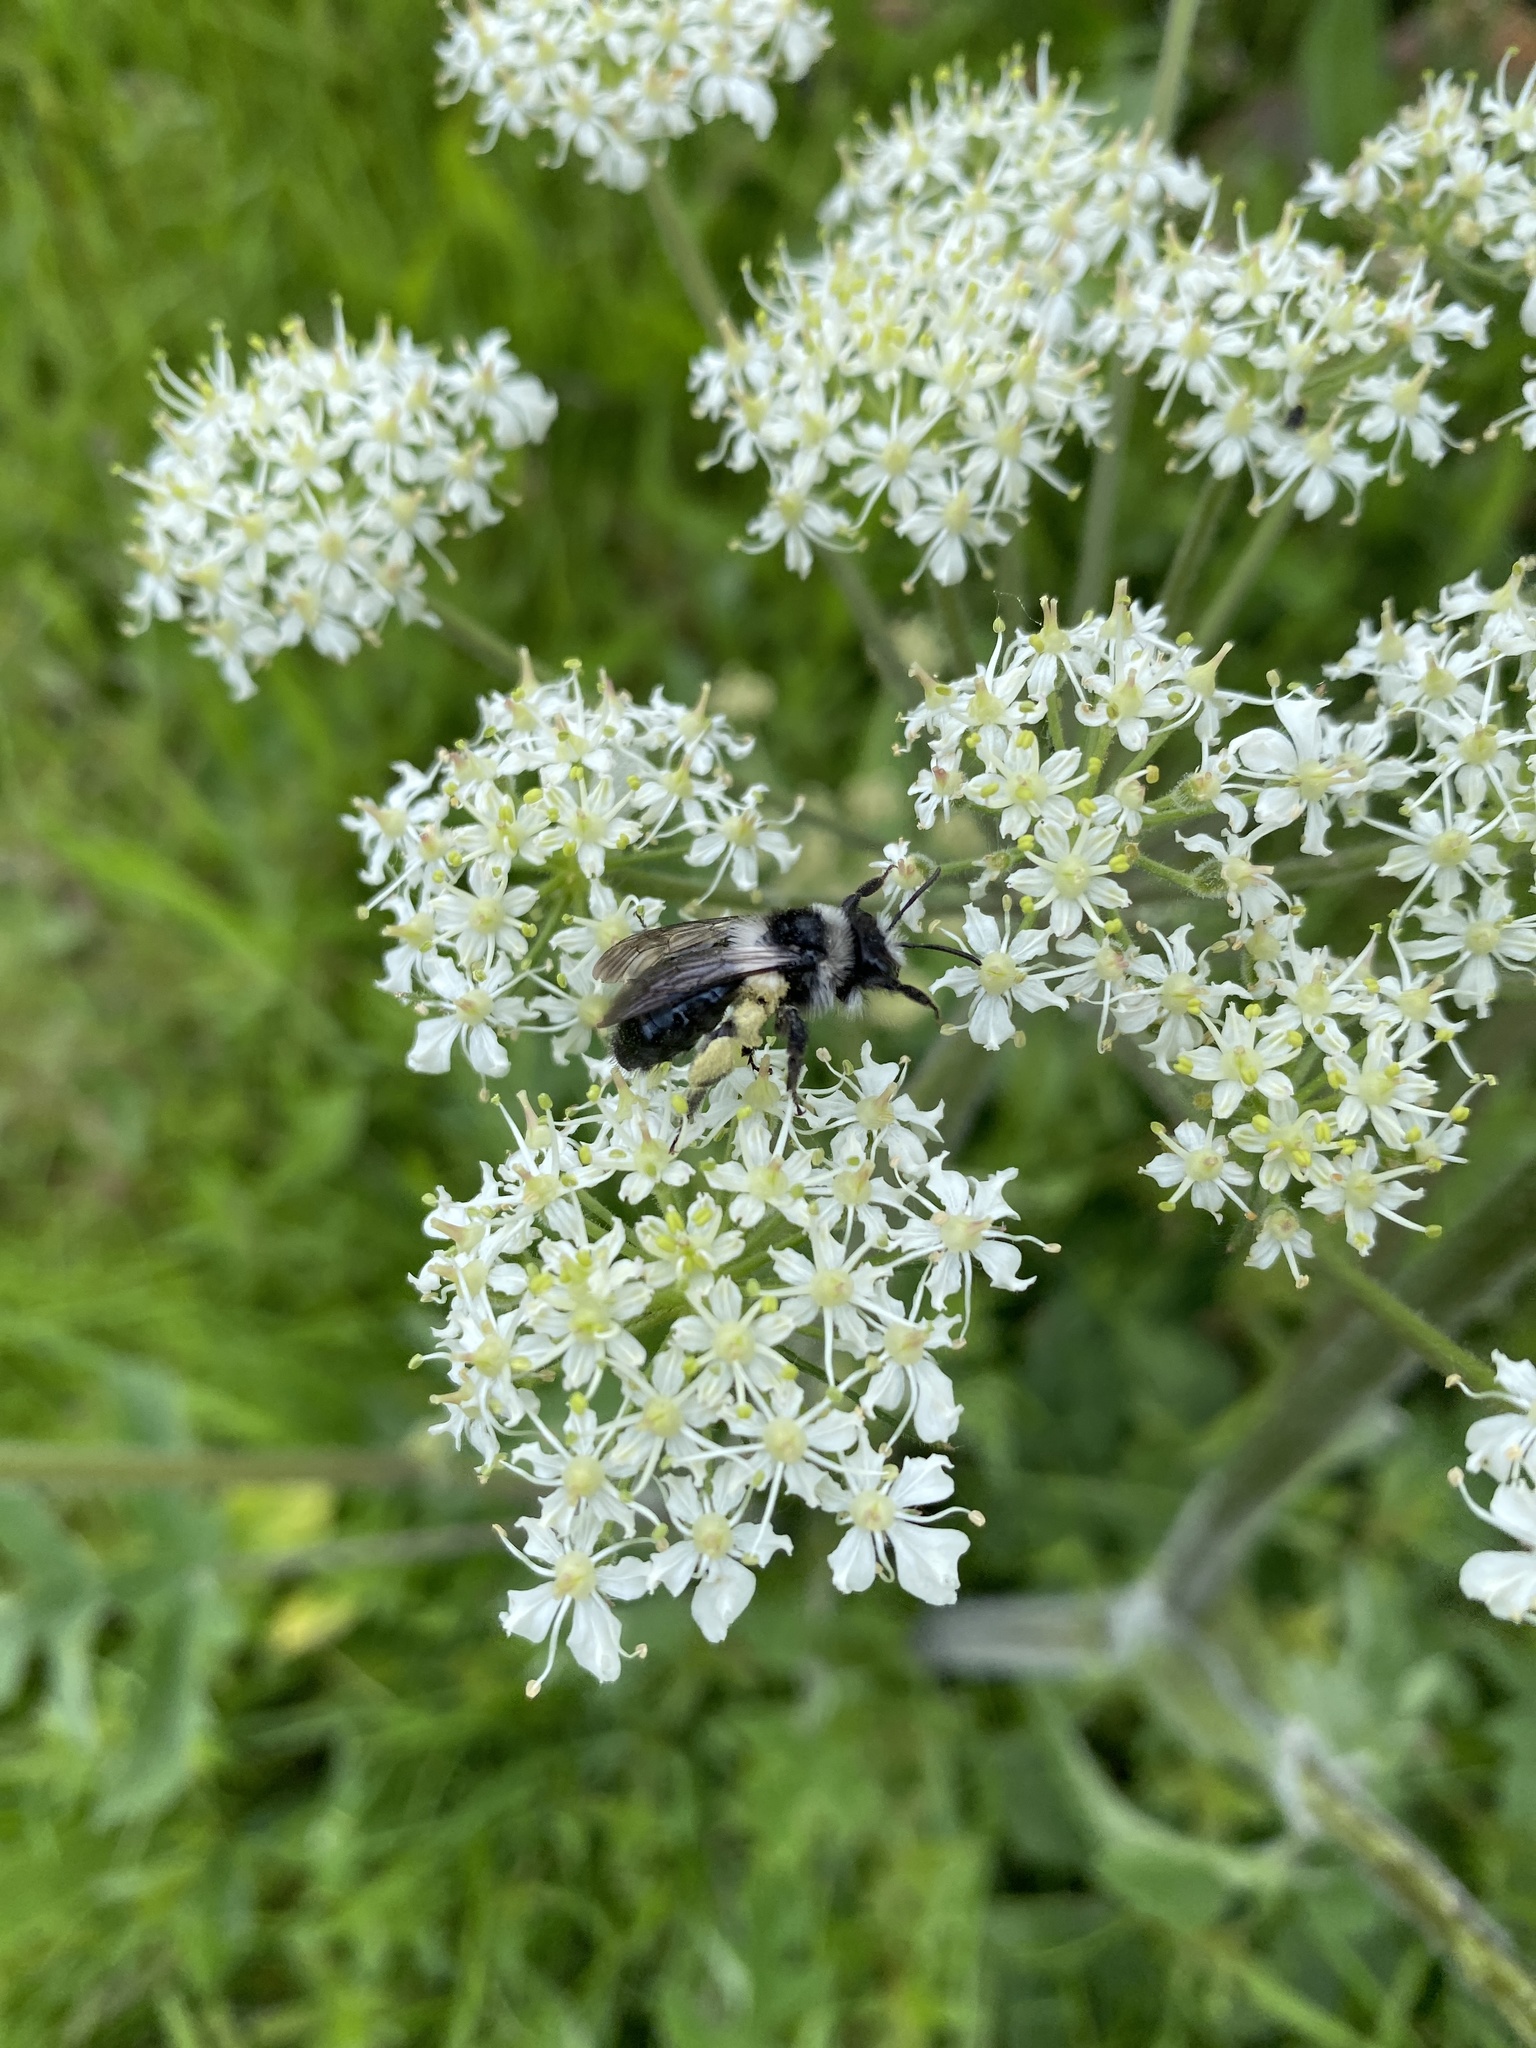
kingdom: Animalia
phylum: Arthropoda
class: Insecta
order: Hymenoptera
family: Andrenidae
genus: Andrena
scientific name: Andrena cineraria
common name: Ashy mining bee
